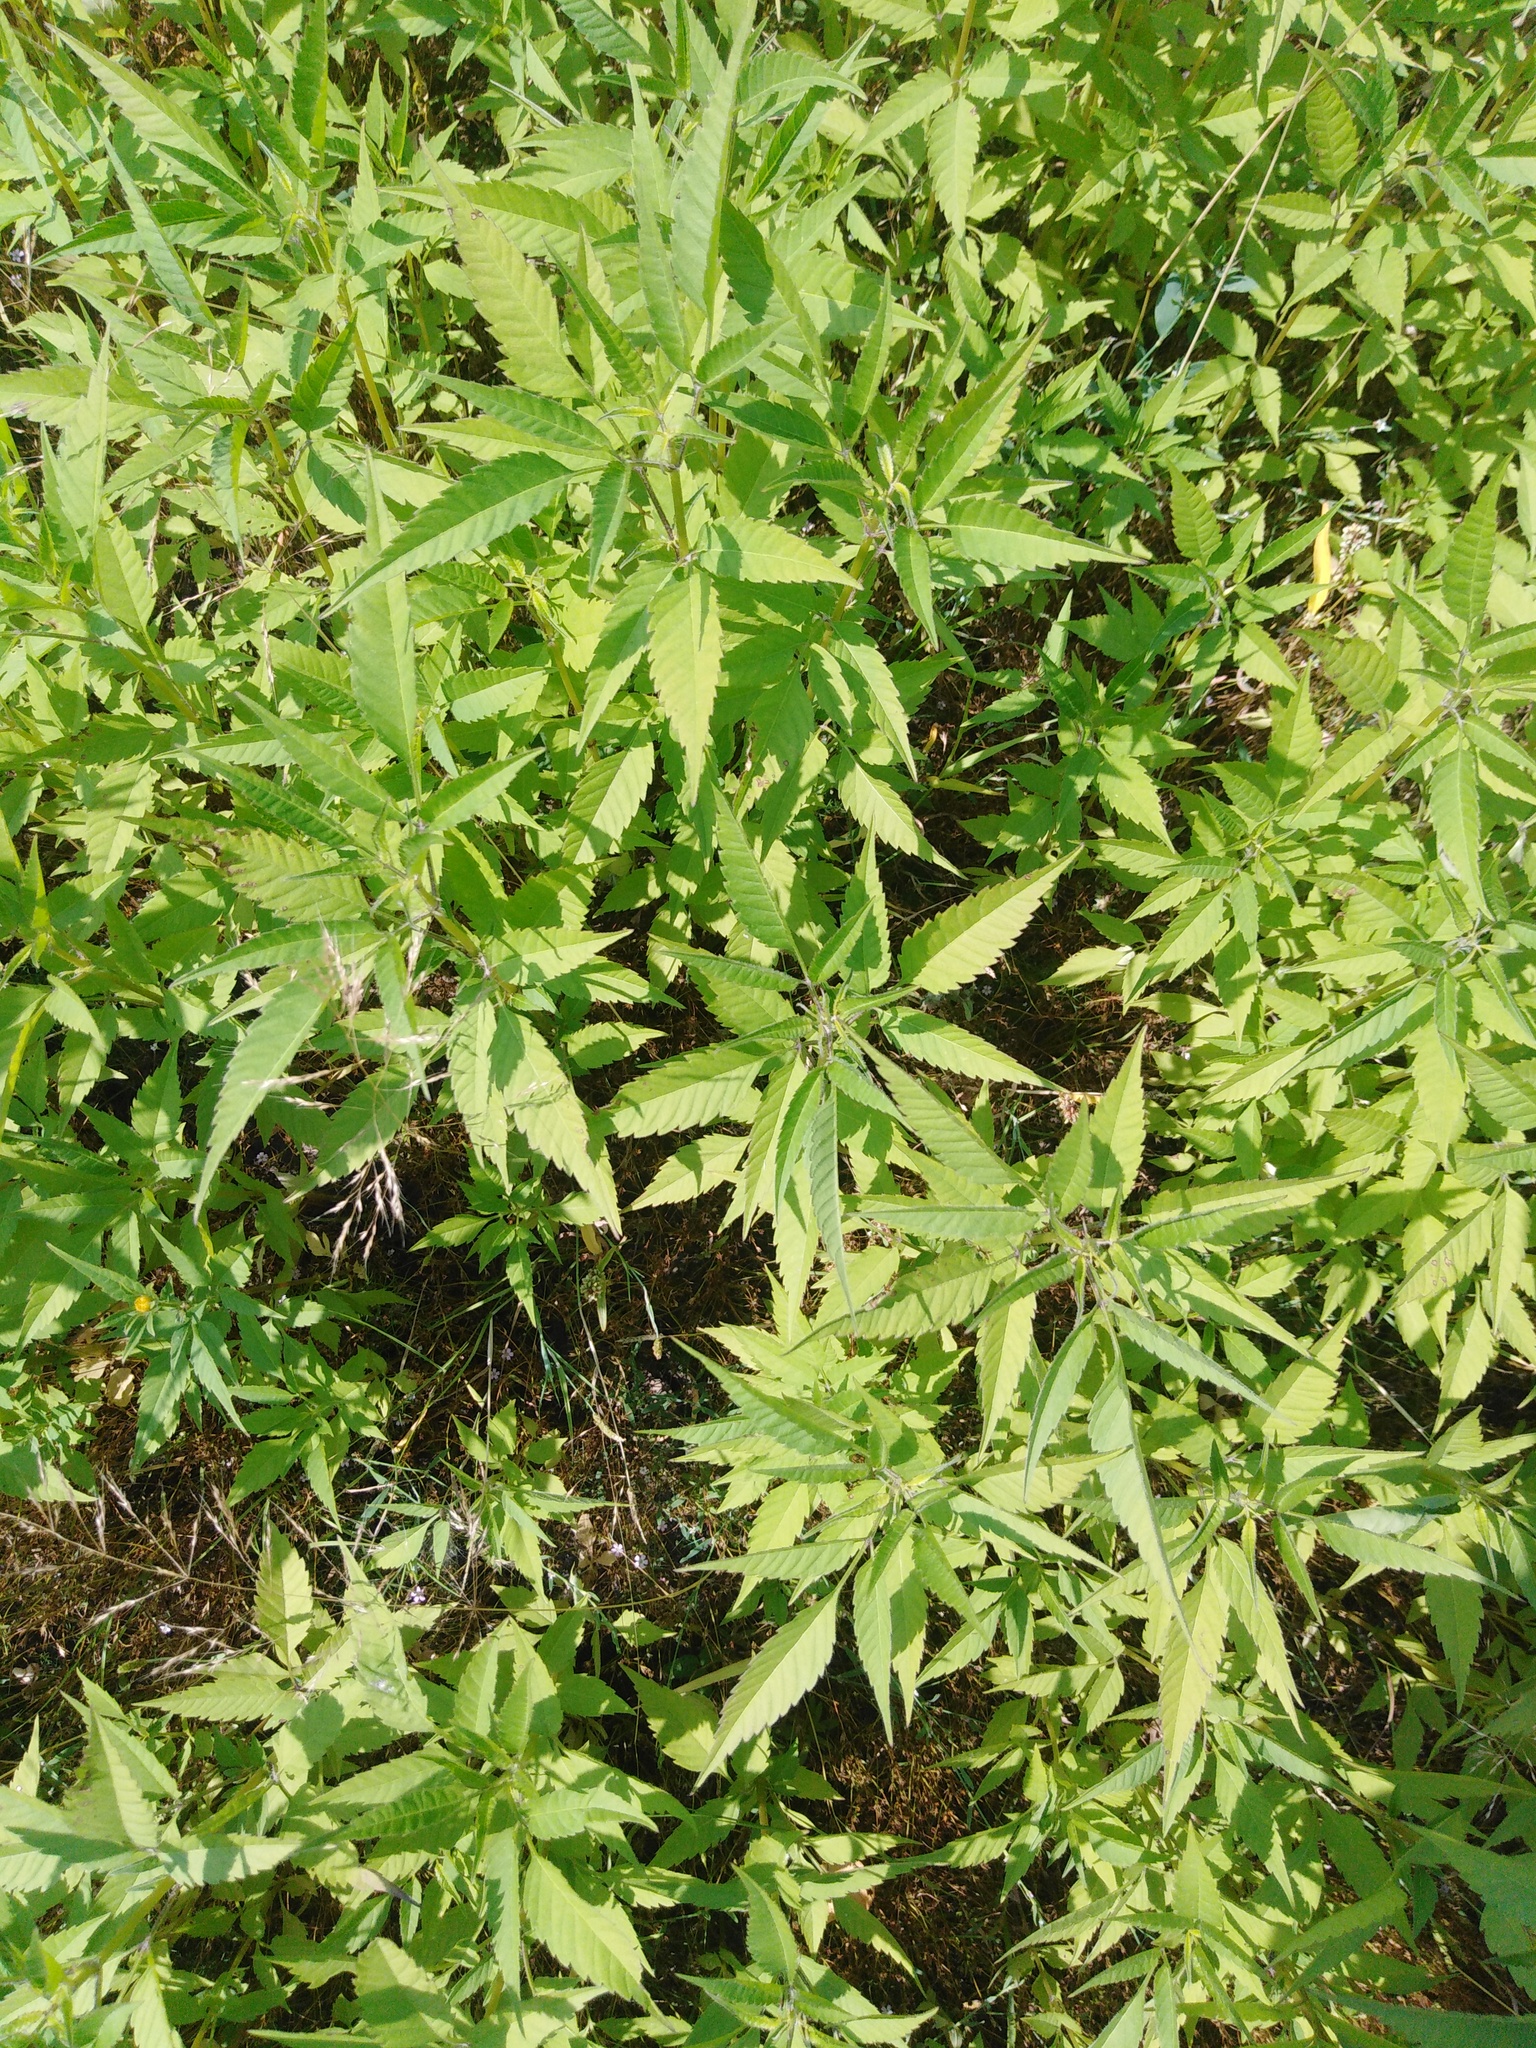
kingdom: Plantae
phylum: Tracheophyta
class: Magnoliopsida
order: Asterales
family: Asteraceae
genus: Bidens
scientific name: Bidens frondosa
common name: Beggarticks
